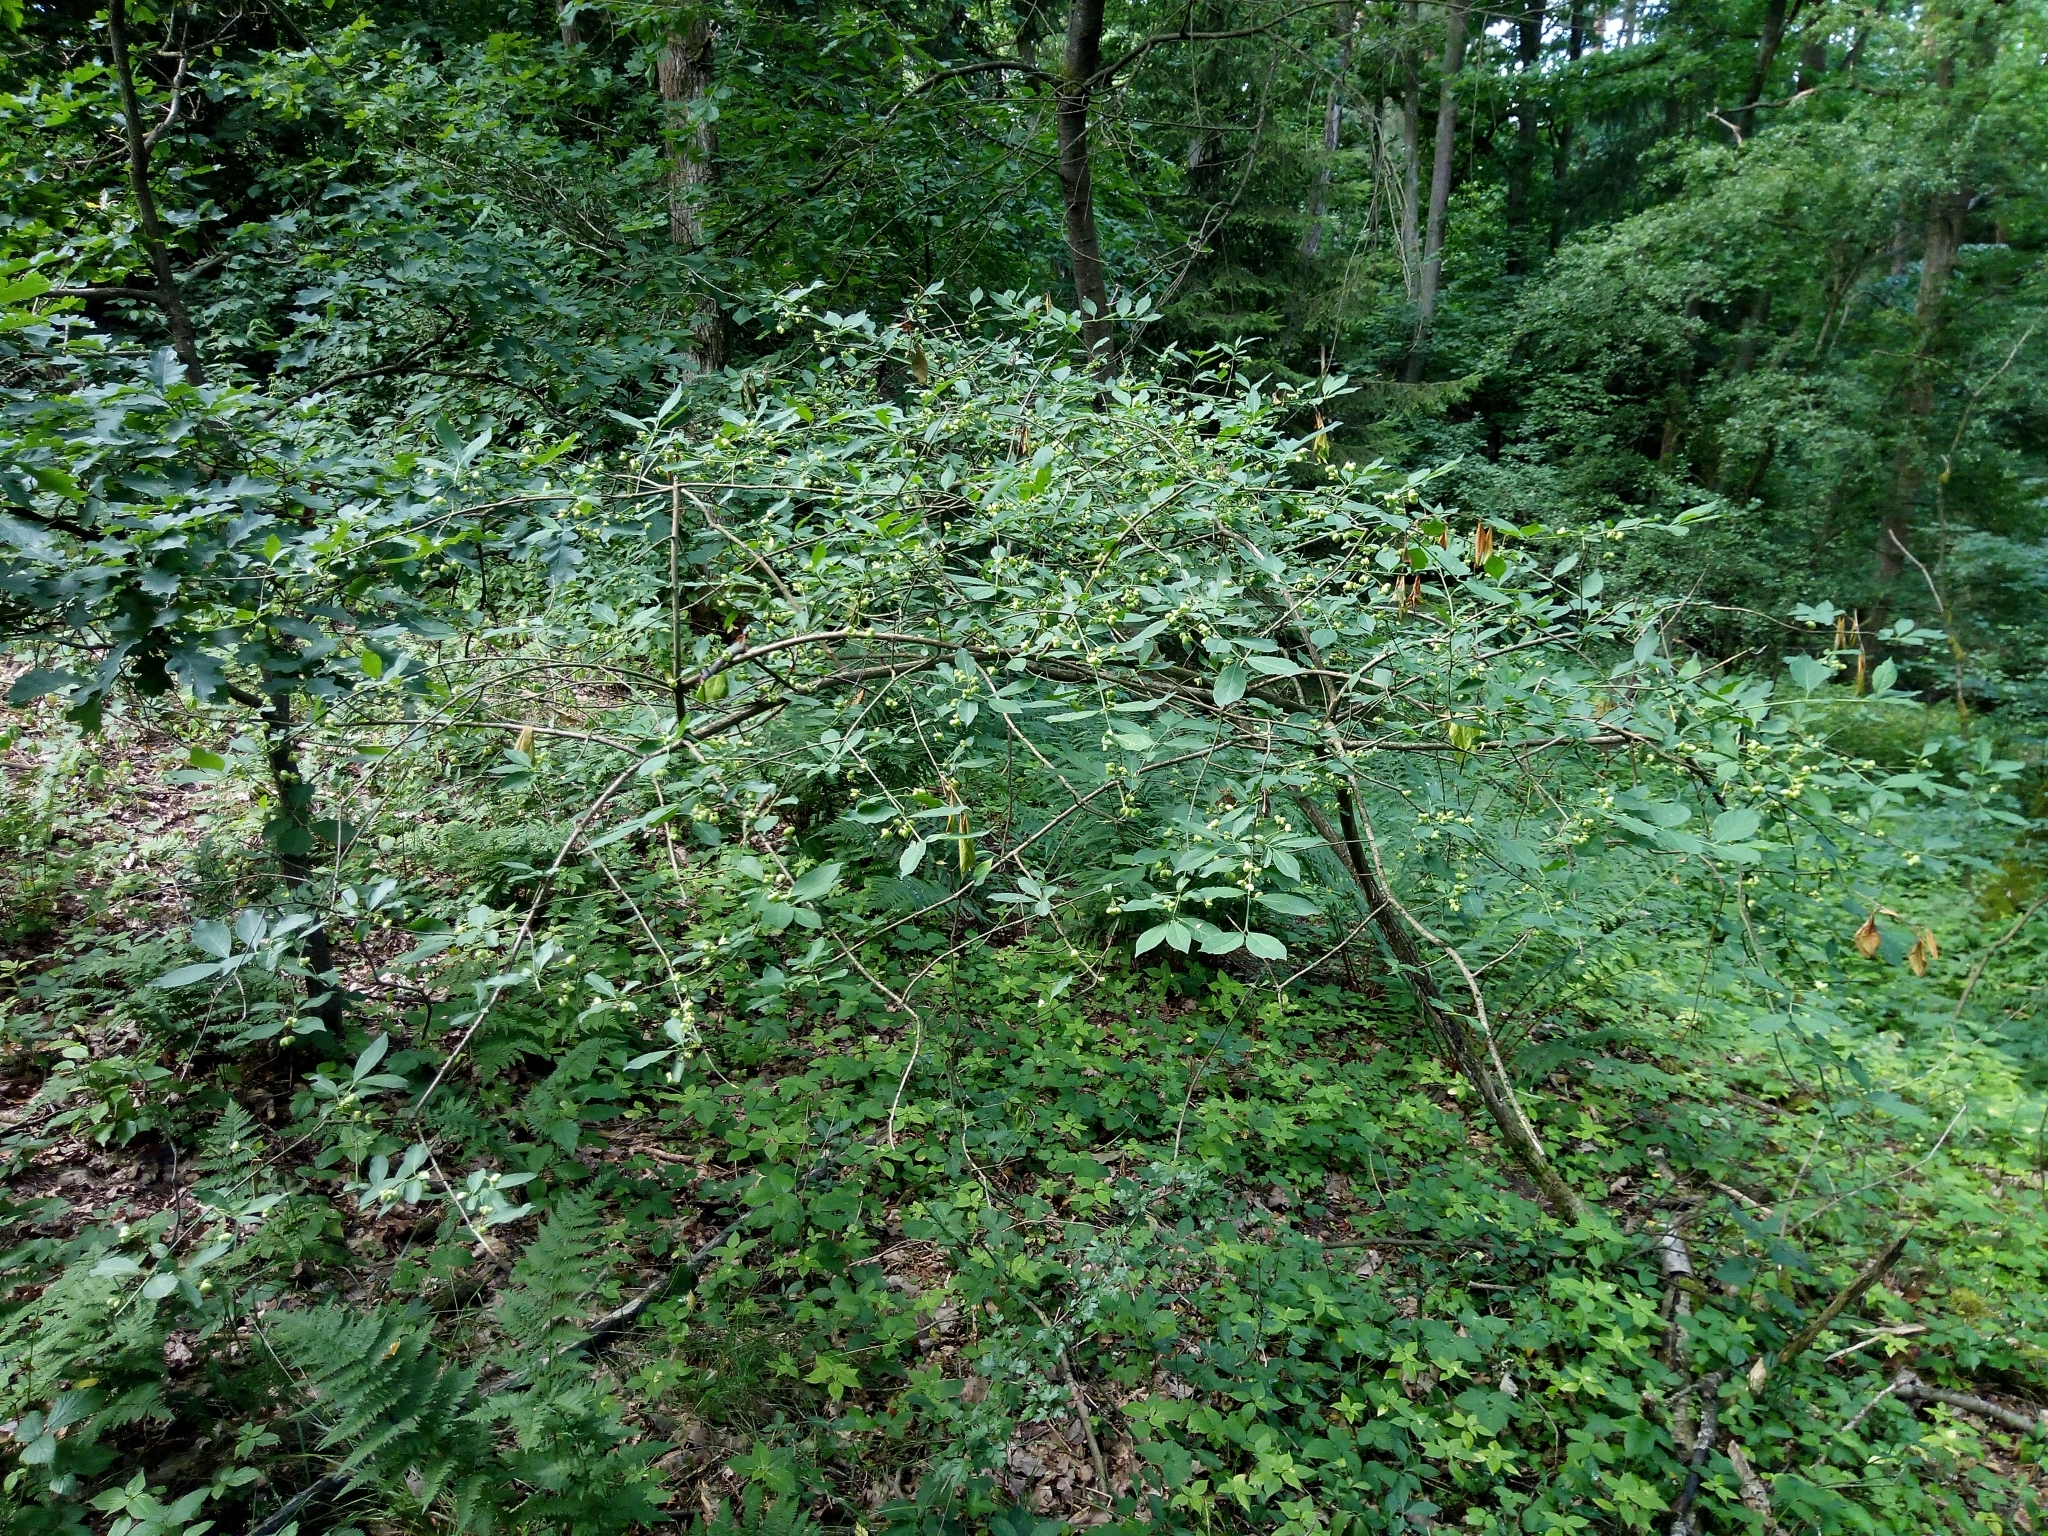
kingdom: Plantae
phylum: Tracheophyta
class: Magnoliopsida
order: Celastrales
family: Celastraceae
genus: Euonymus
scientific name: Euonymus europaeus
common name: Spindle
